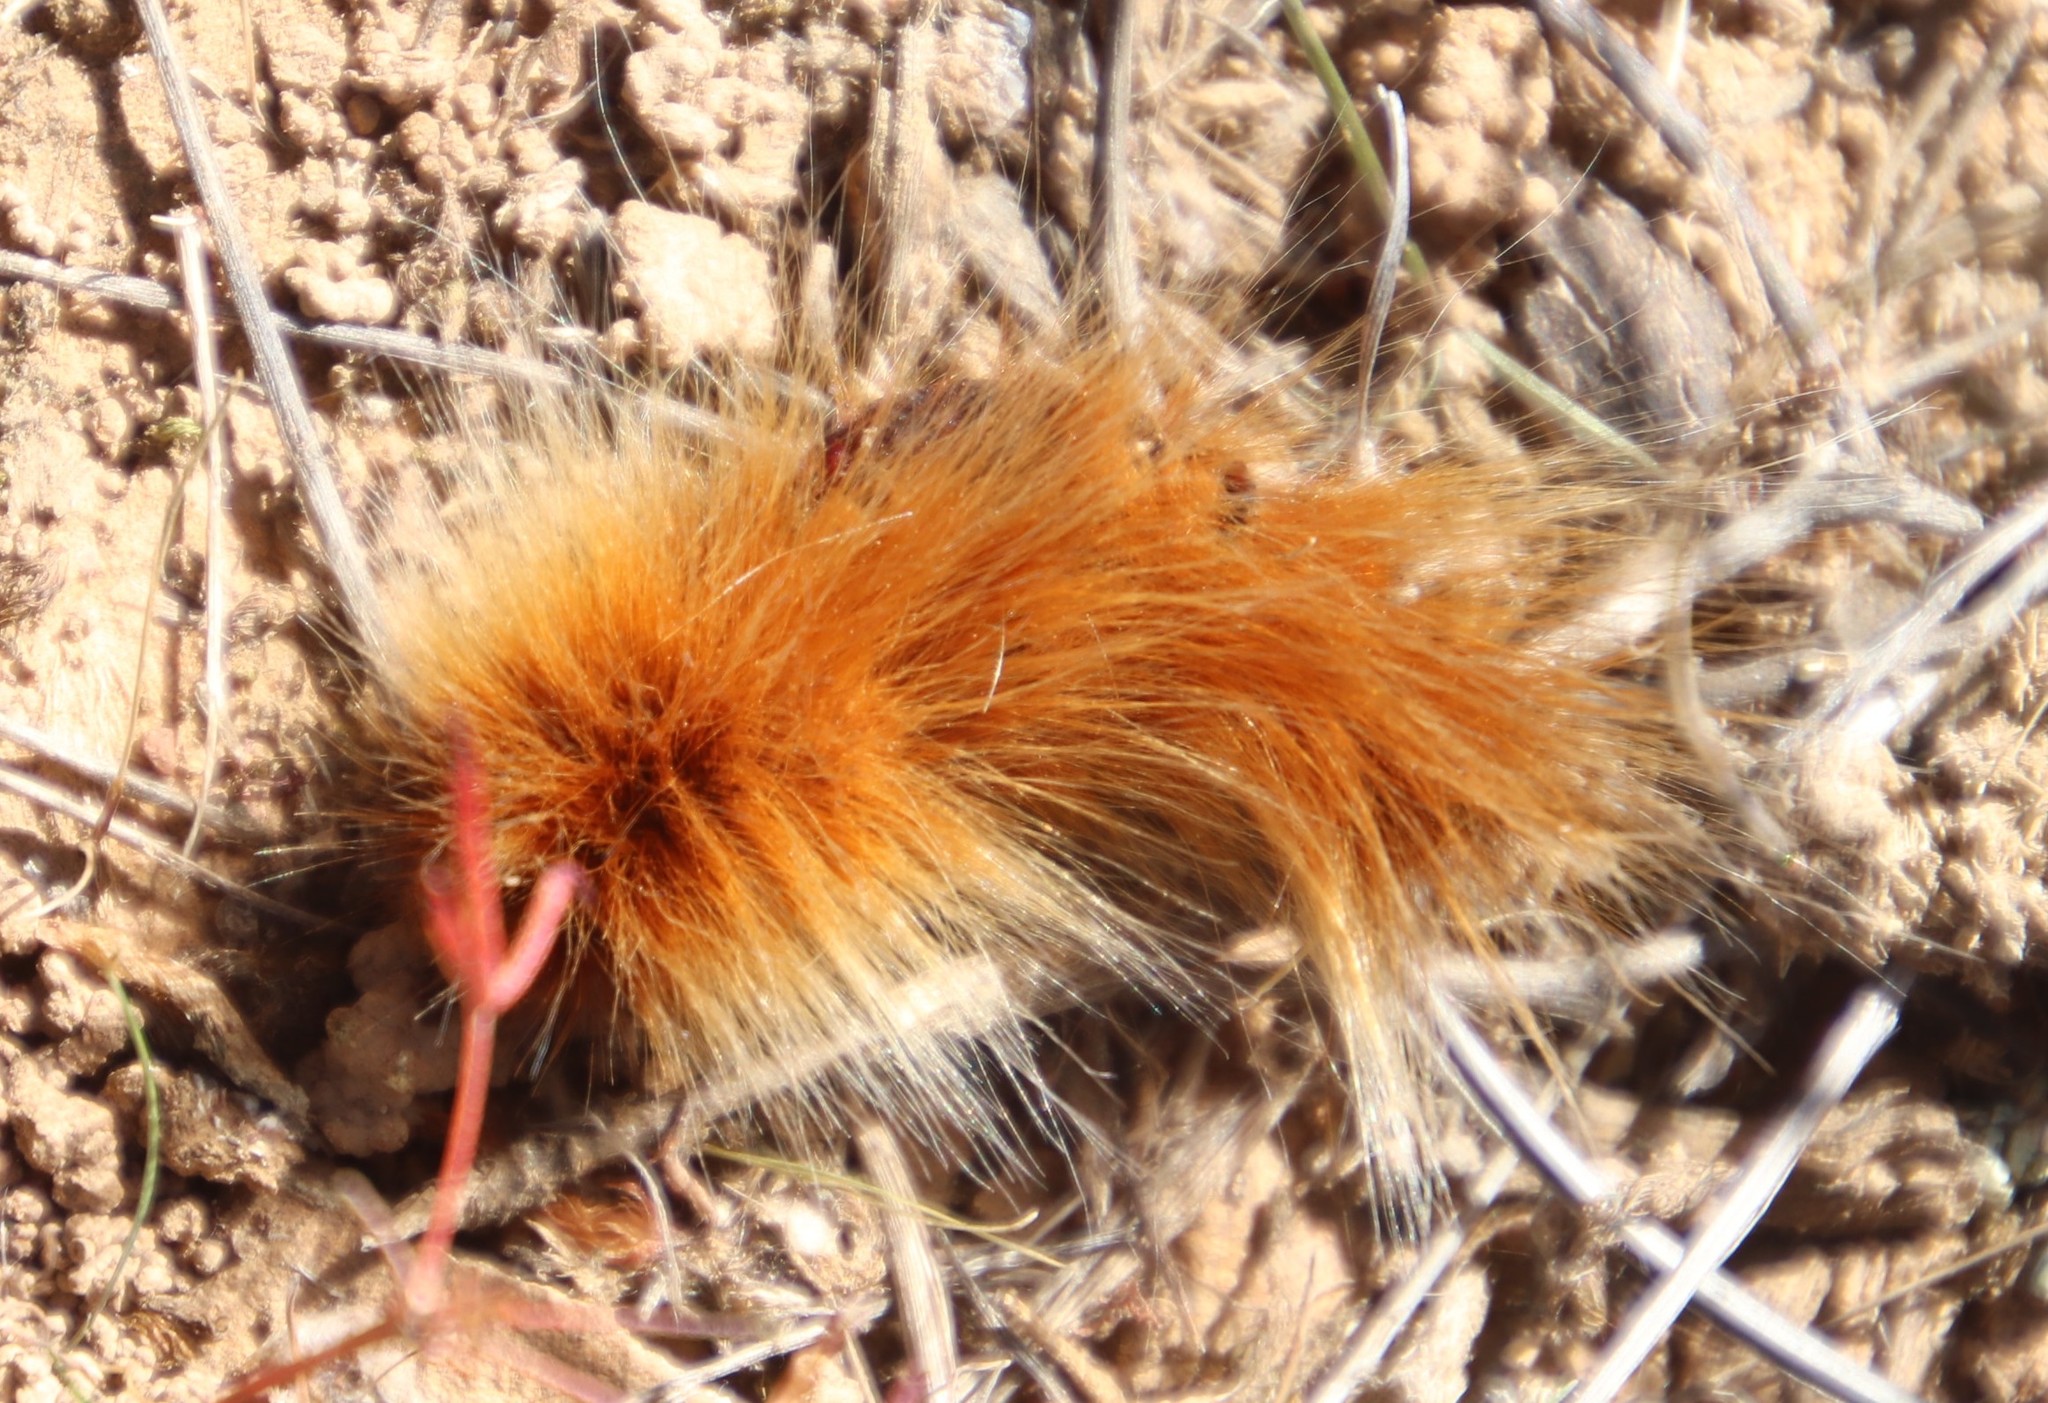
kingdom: Animalia
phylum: Arthropoda
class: Insecta
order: Lepidoptera
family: Lasiocampidae
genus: Mesocelis
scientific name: Mesocelis monticola
